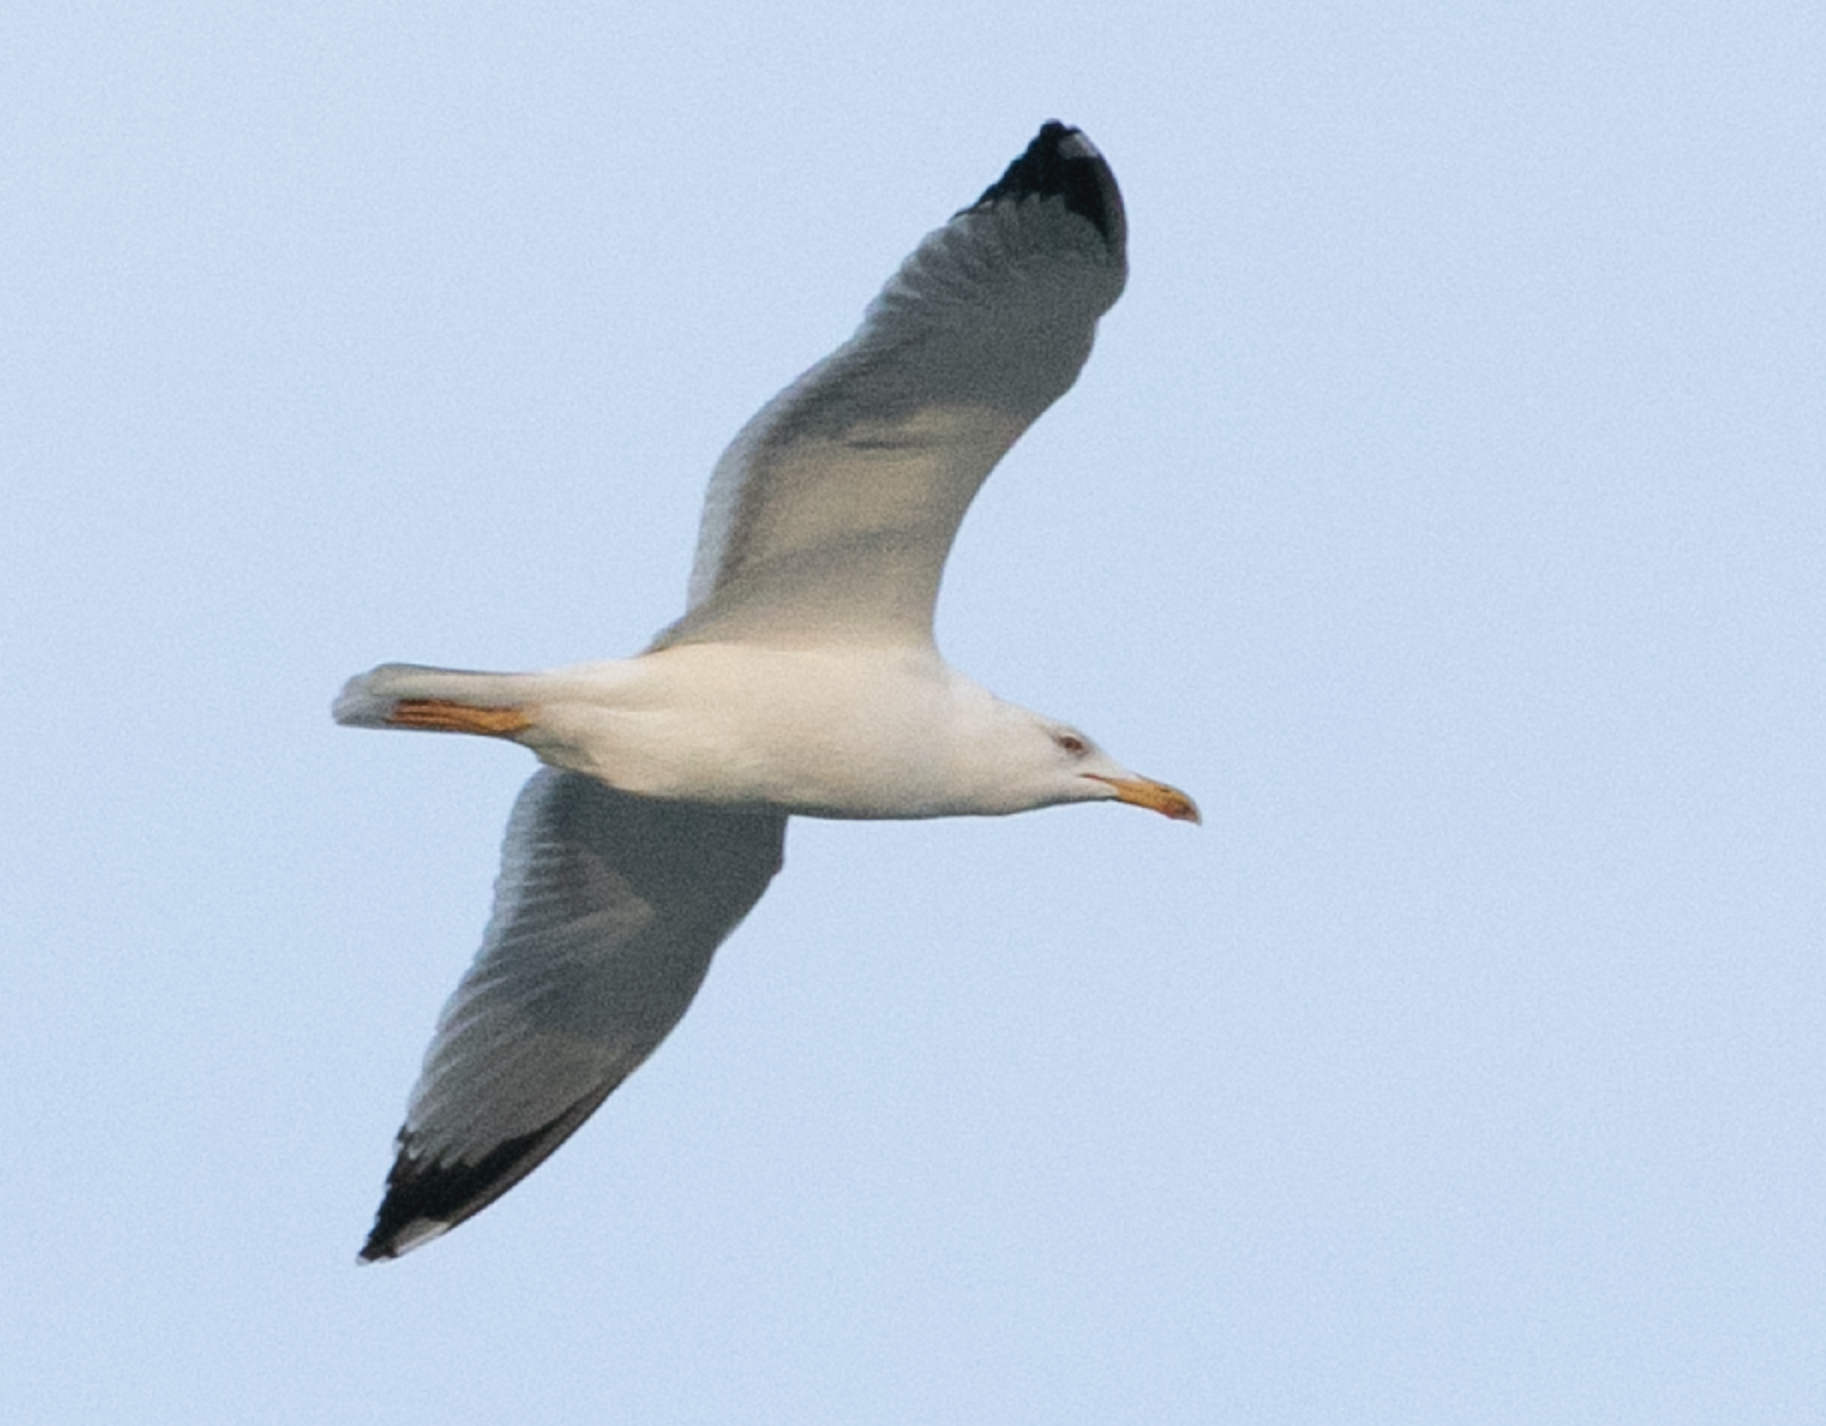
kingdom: Animalia
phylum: Chordata
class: Aves
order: Charadriiformes
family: Laridae
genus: Larus
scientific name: Larus michahellis
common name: Yellow-legged gull
